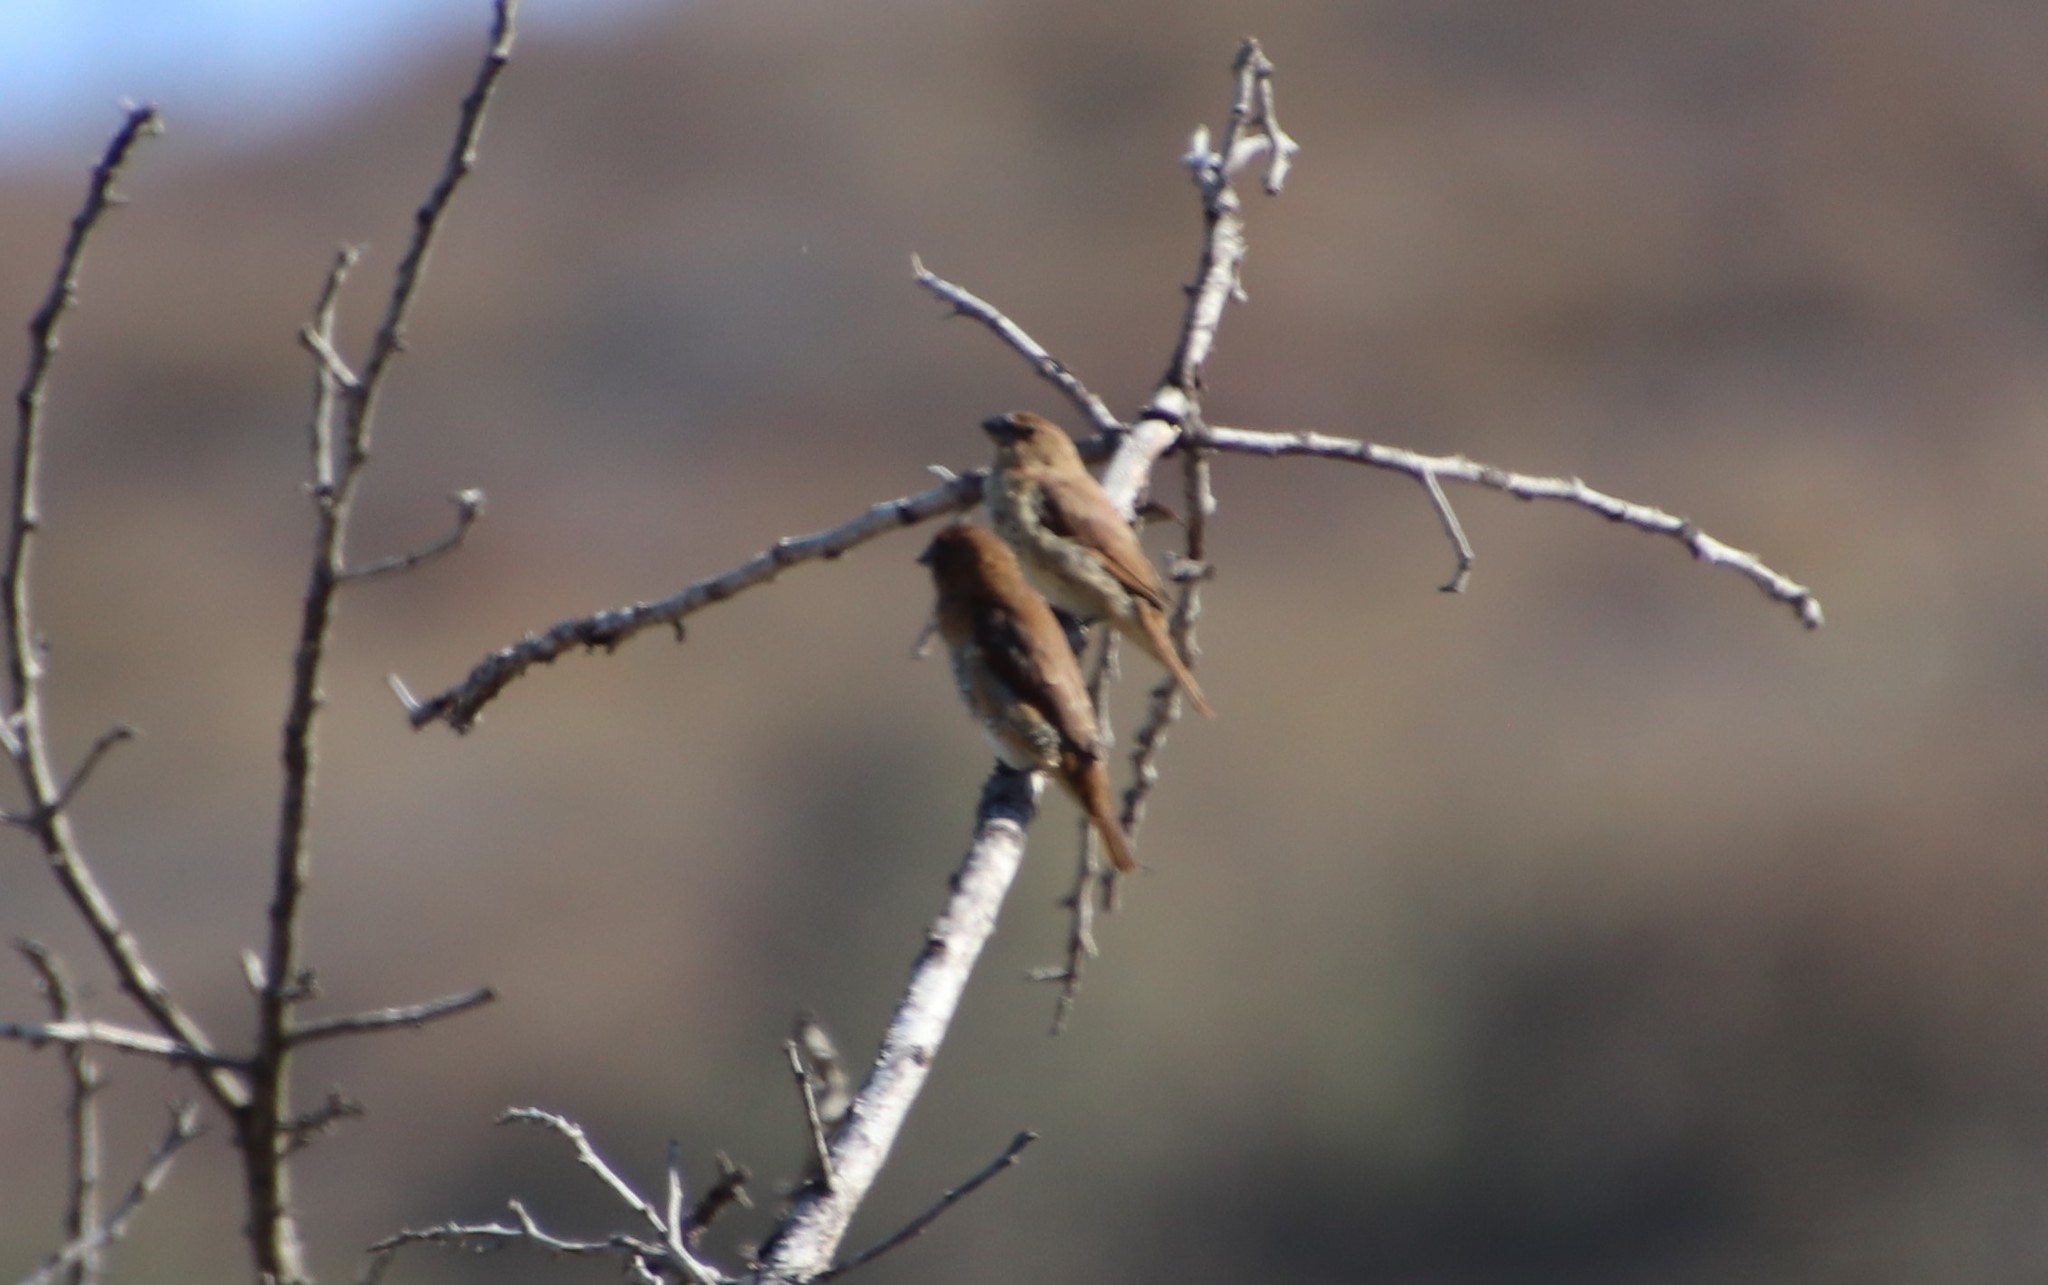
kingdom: Animalia
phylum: Chordata
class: Aves
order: Passeriformes
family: Estrildidae
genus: Lonchura
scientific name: Lonchura punctulata
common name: Scaly-breasted munia
